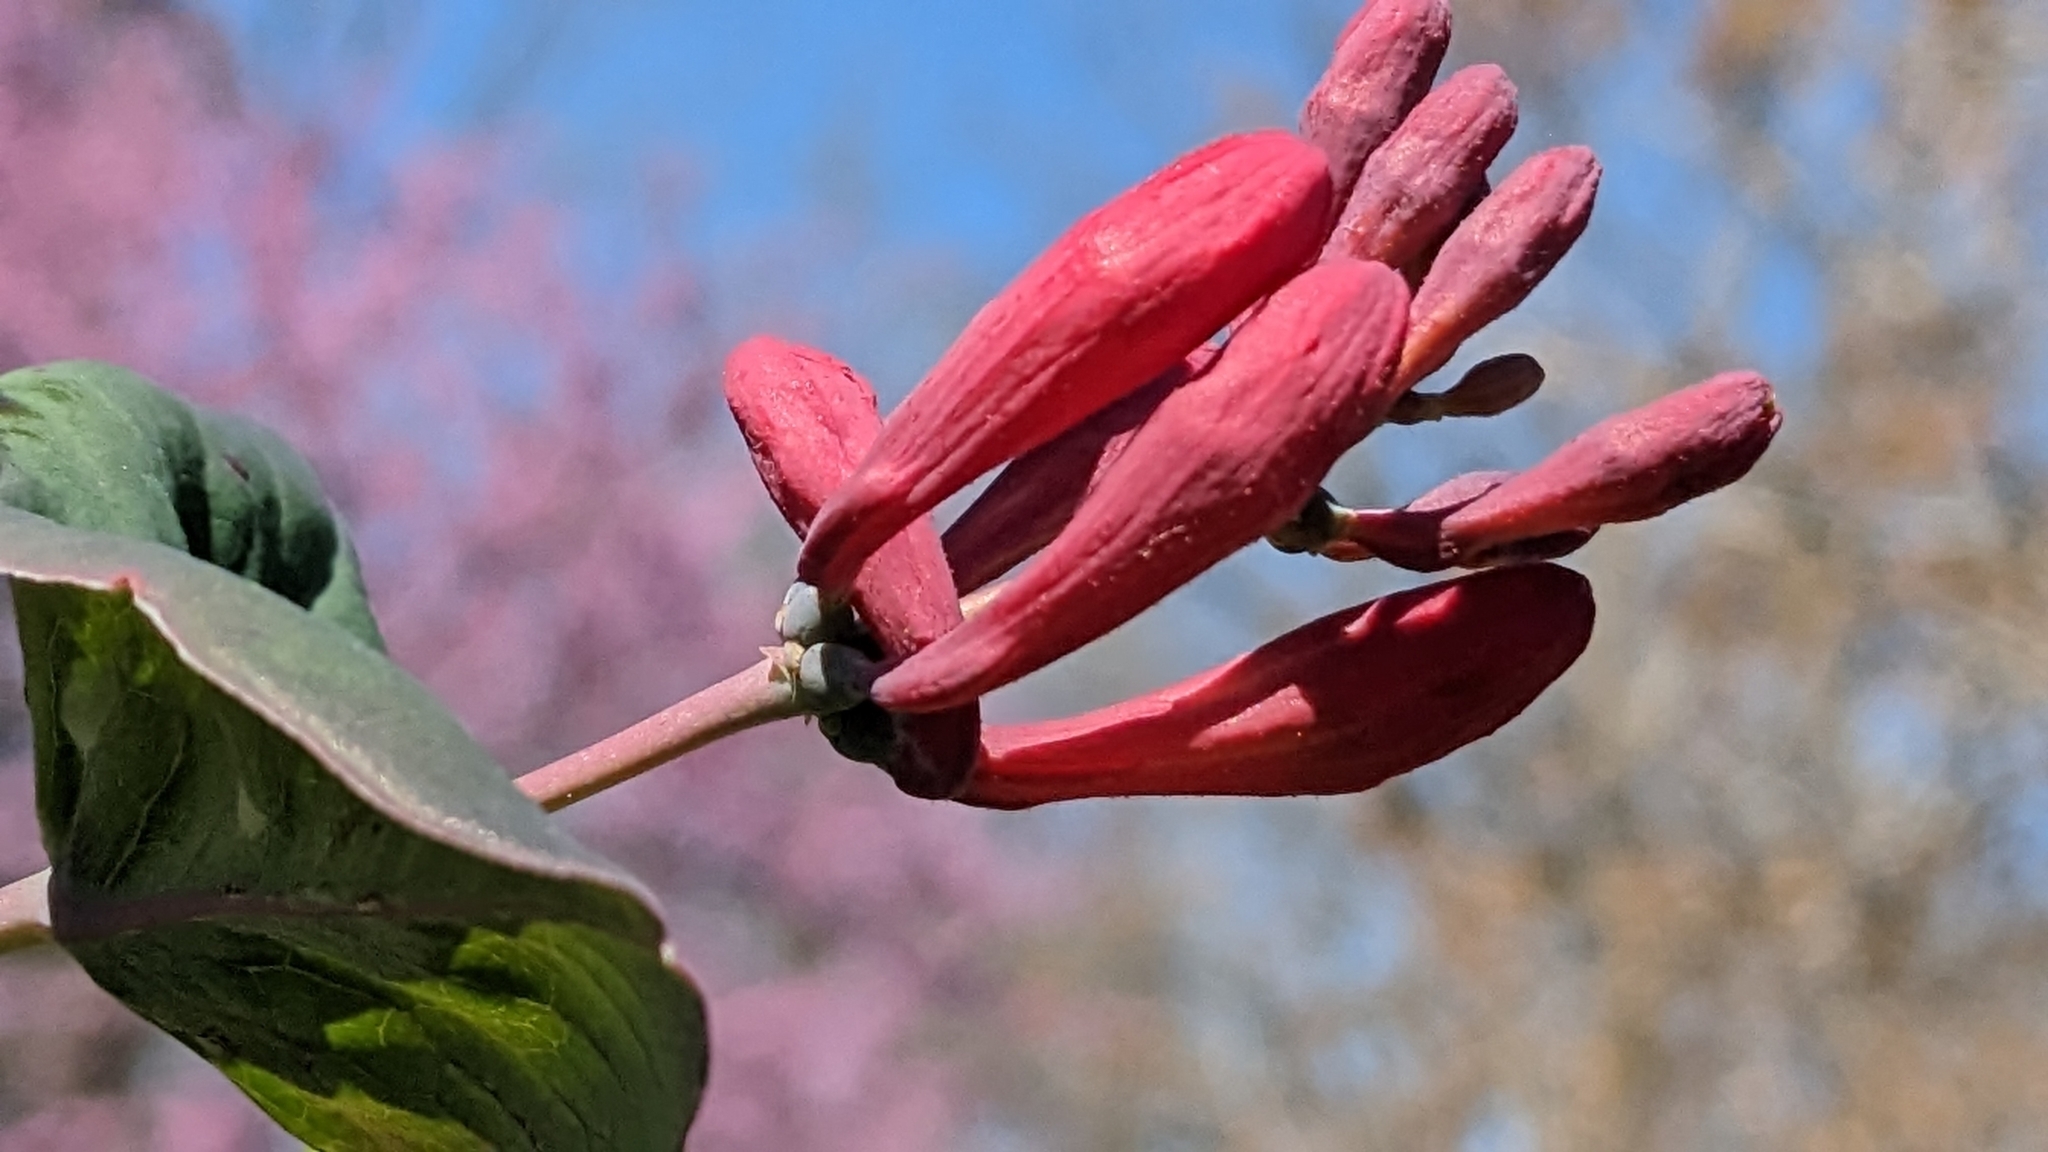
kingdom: Plantae
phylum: Tracheophyta
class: Magnoliopsida
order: Dipsacales
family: Caprifoliaceae
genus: Lonicera
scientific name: Lonicera sempervirens
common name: Coral honeysuckle
